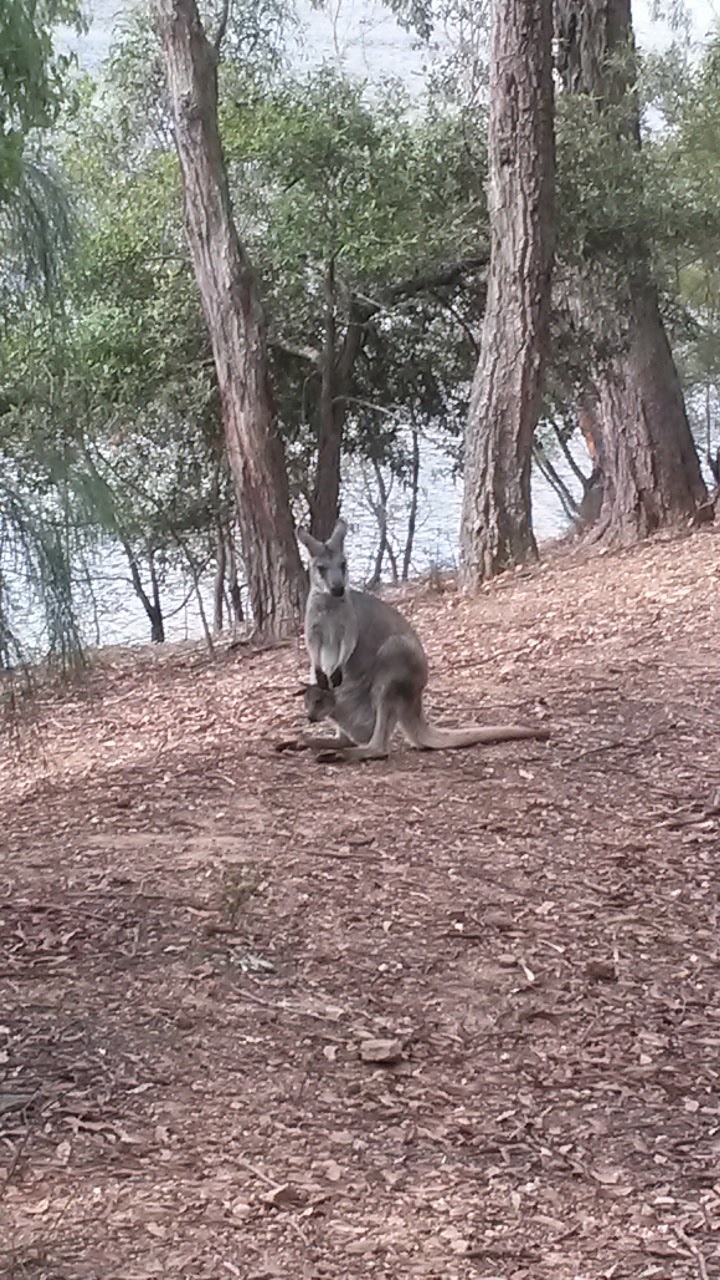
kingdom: Animalia
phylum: Chordata
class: Mammalia
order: Diprotodontia
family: Macropodidae
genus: Macropus
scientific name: Macropus robustus
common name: Eastern wallaroo
